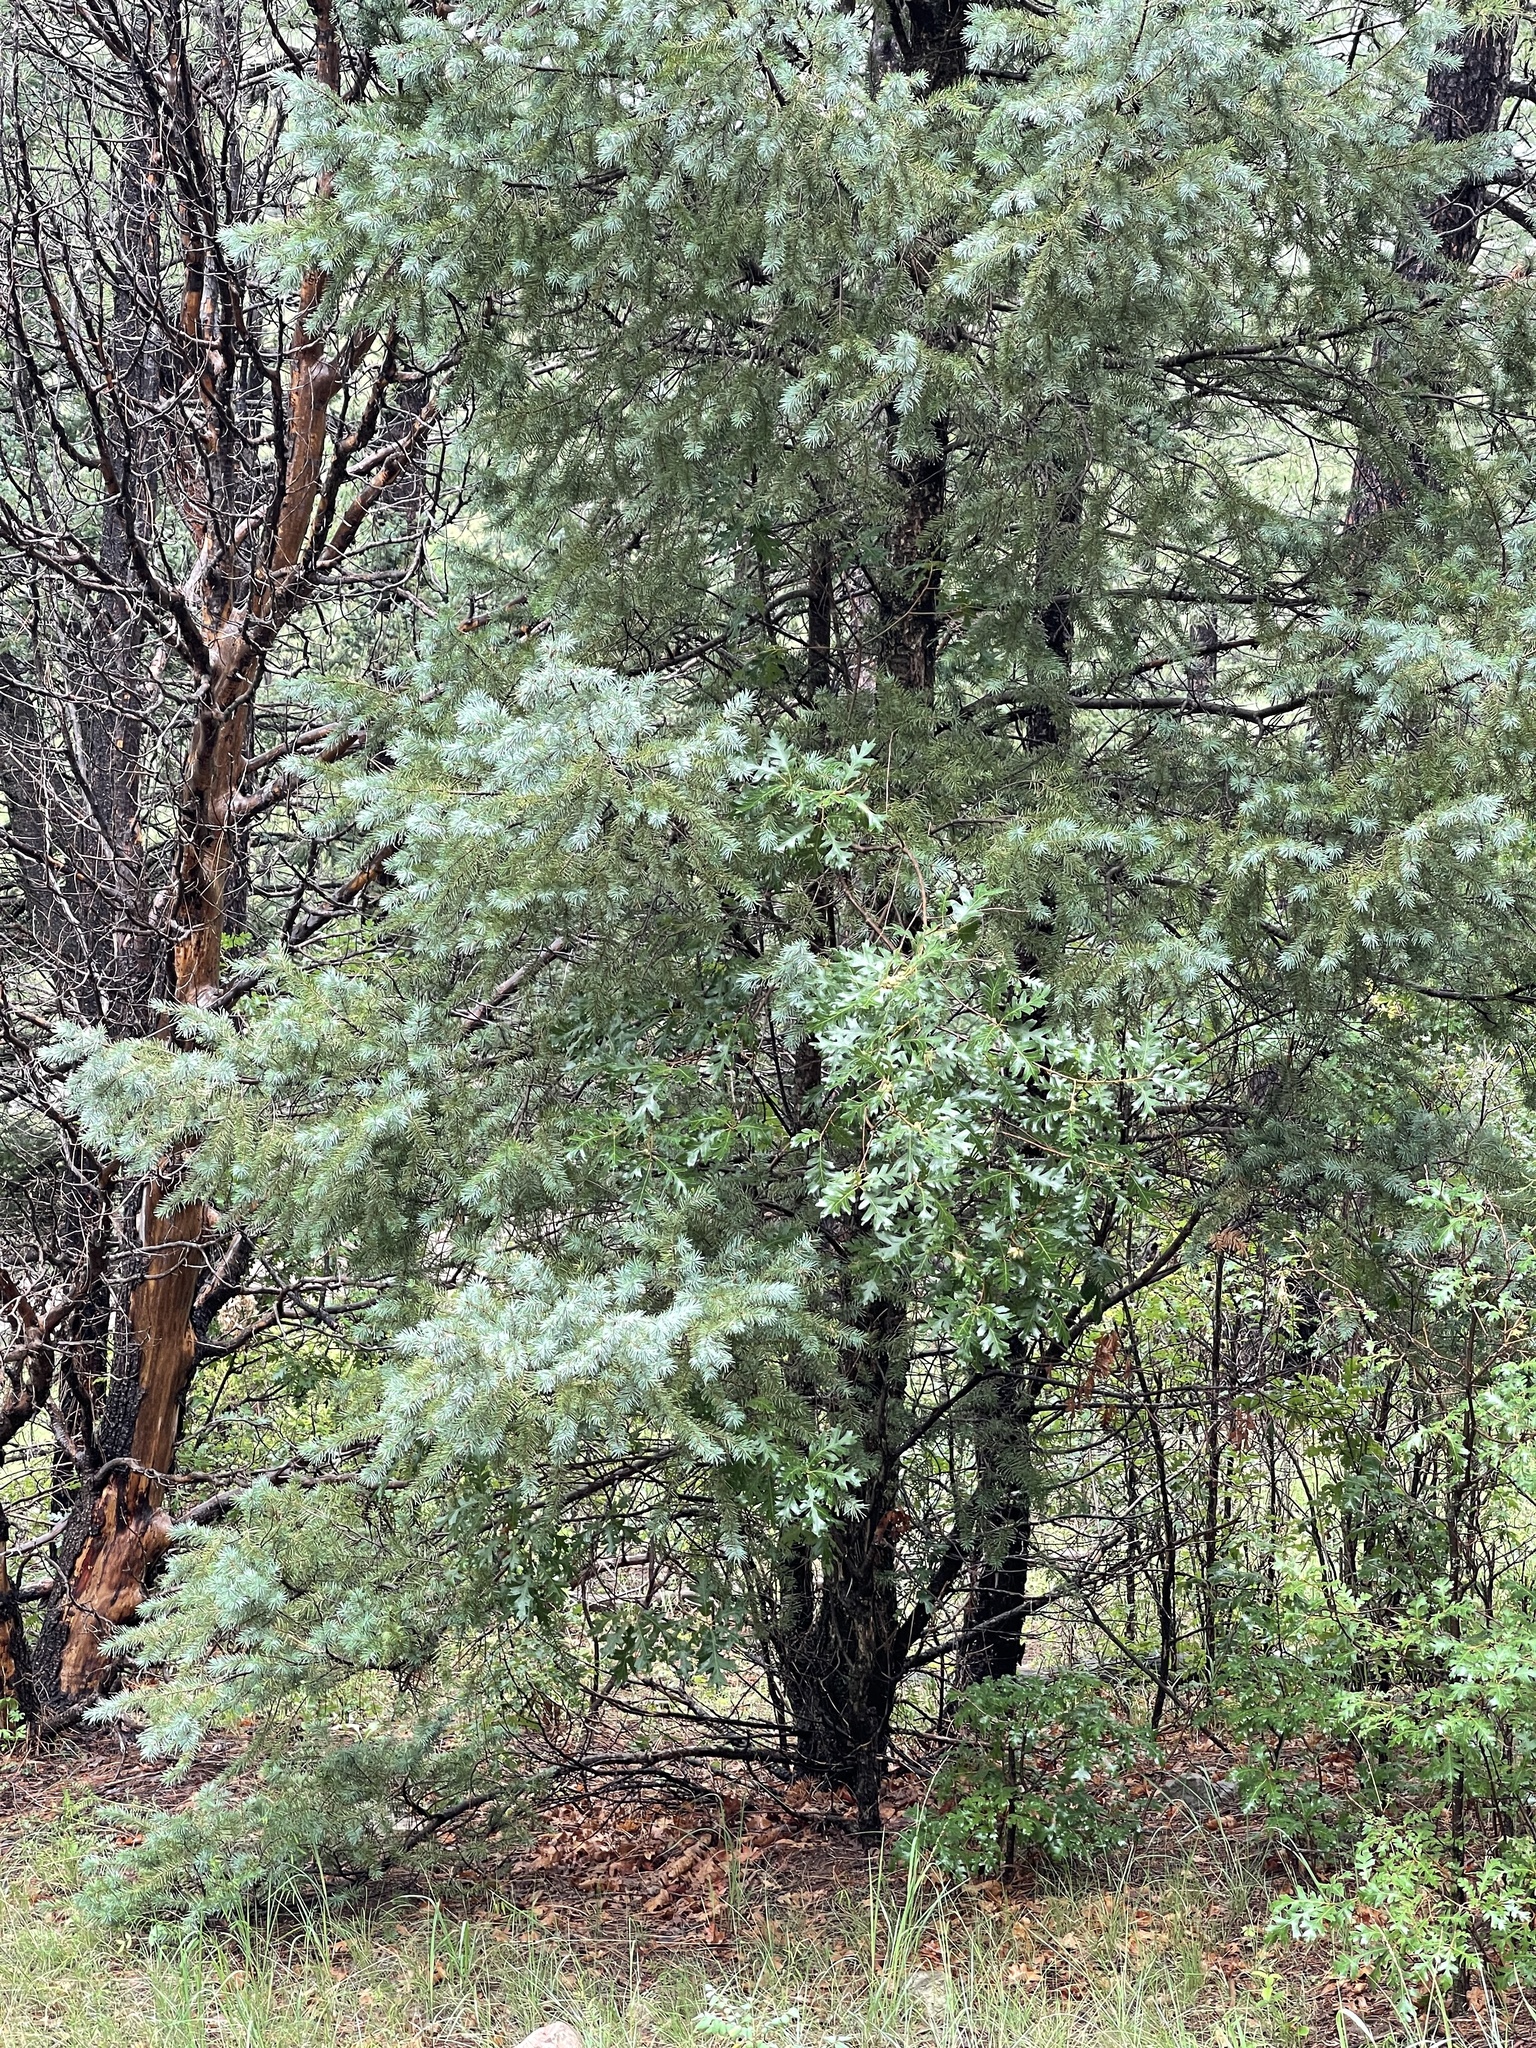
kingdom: Plantae
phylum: Tracheophyta
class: Pinopsida
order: Pinales
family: Pinaceae
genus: Pseudotsuga
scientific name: Pseudotsuga menziesii
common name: Douglas fir
